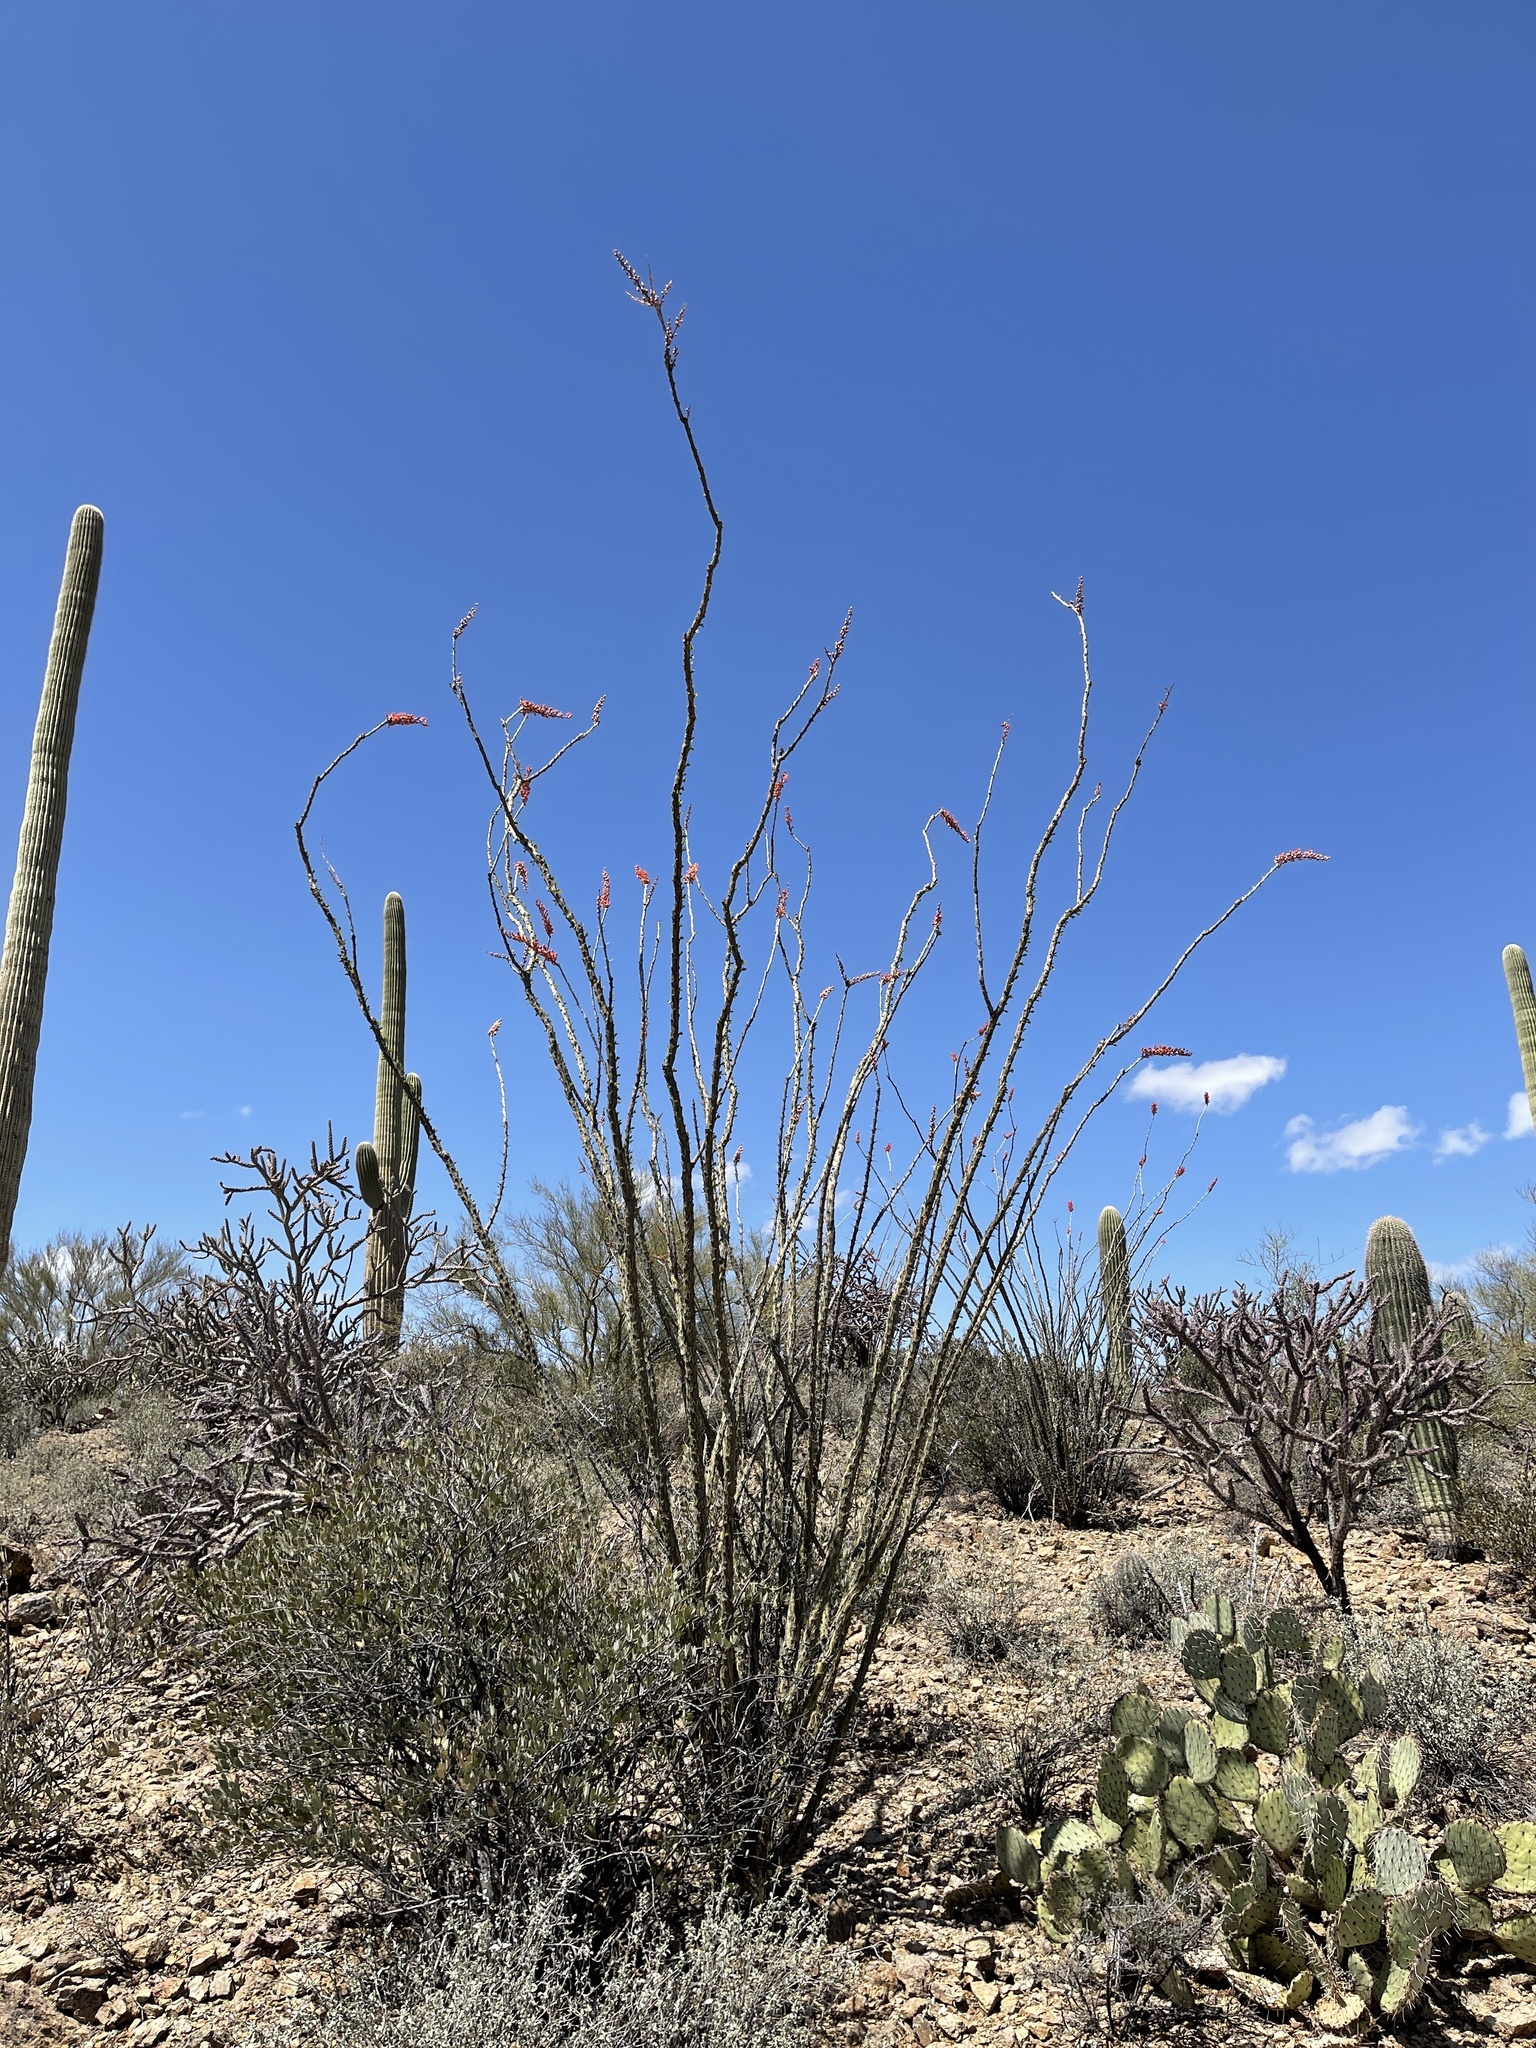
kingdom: Plantae
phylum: Tracheophyta
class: Magnoliopsida
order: Ericales
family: Fouquieriaceae
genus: Fouquieria
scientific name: Fouquieria splendens
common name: Vine-cactus
